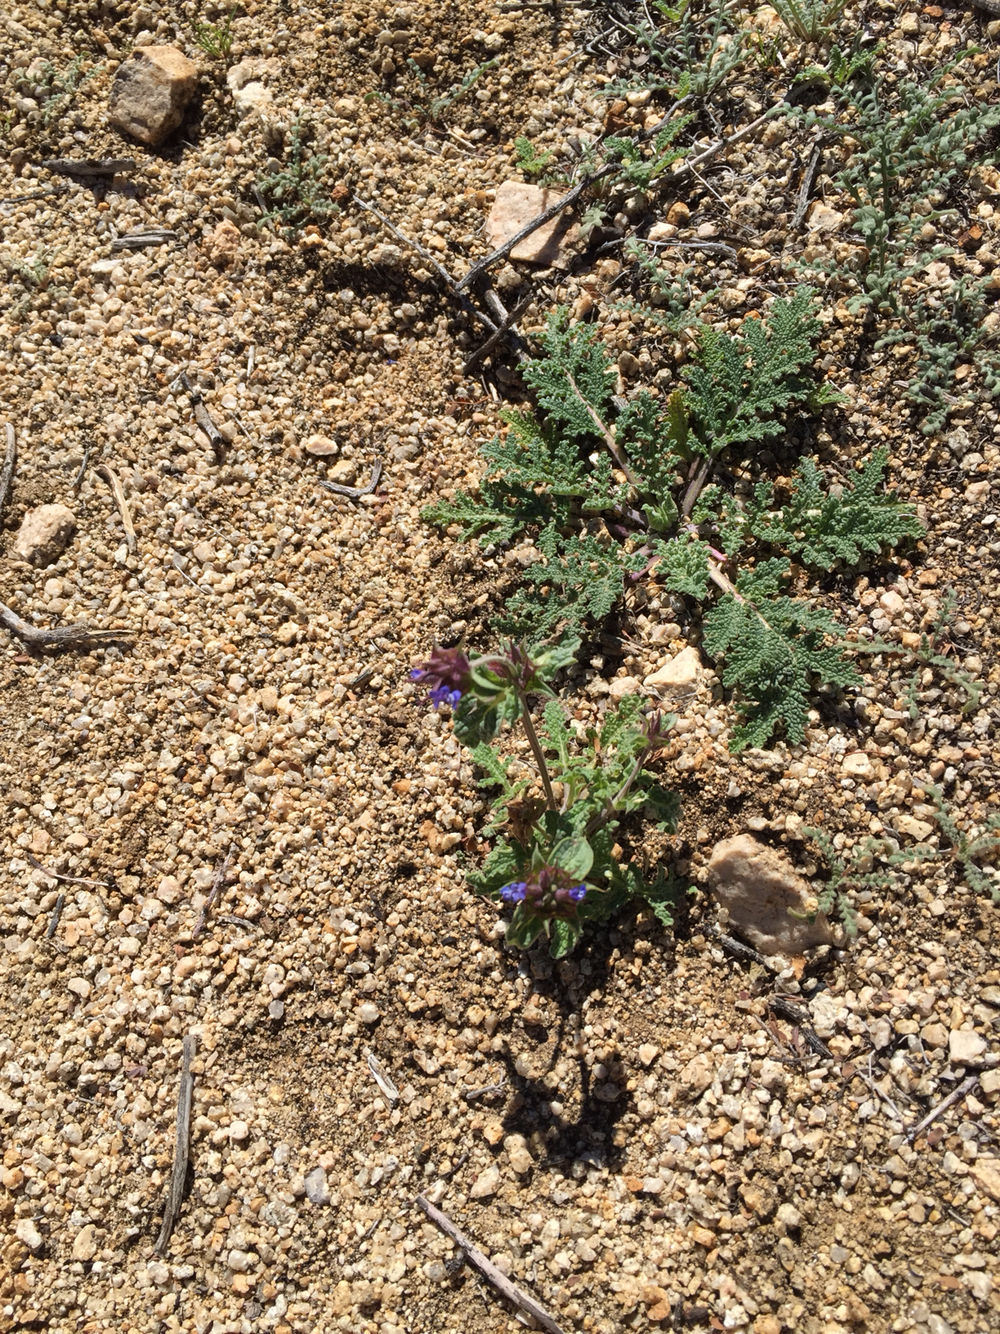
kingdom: Plantae
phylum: Tracheophyta
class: Magnoliopsida
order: Lamiales
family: Lamiaceae
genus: Salvia
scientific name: Salvia columbariae
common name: Chia
